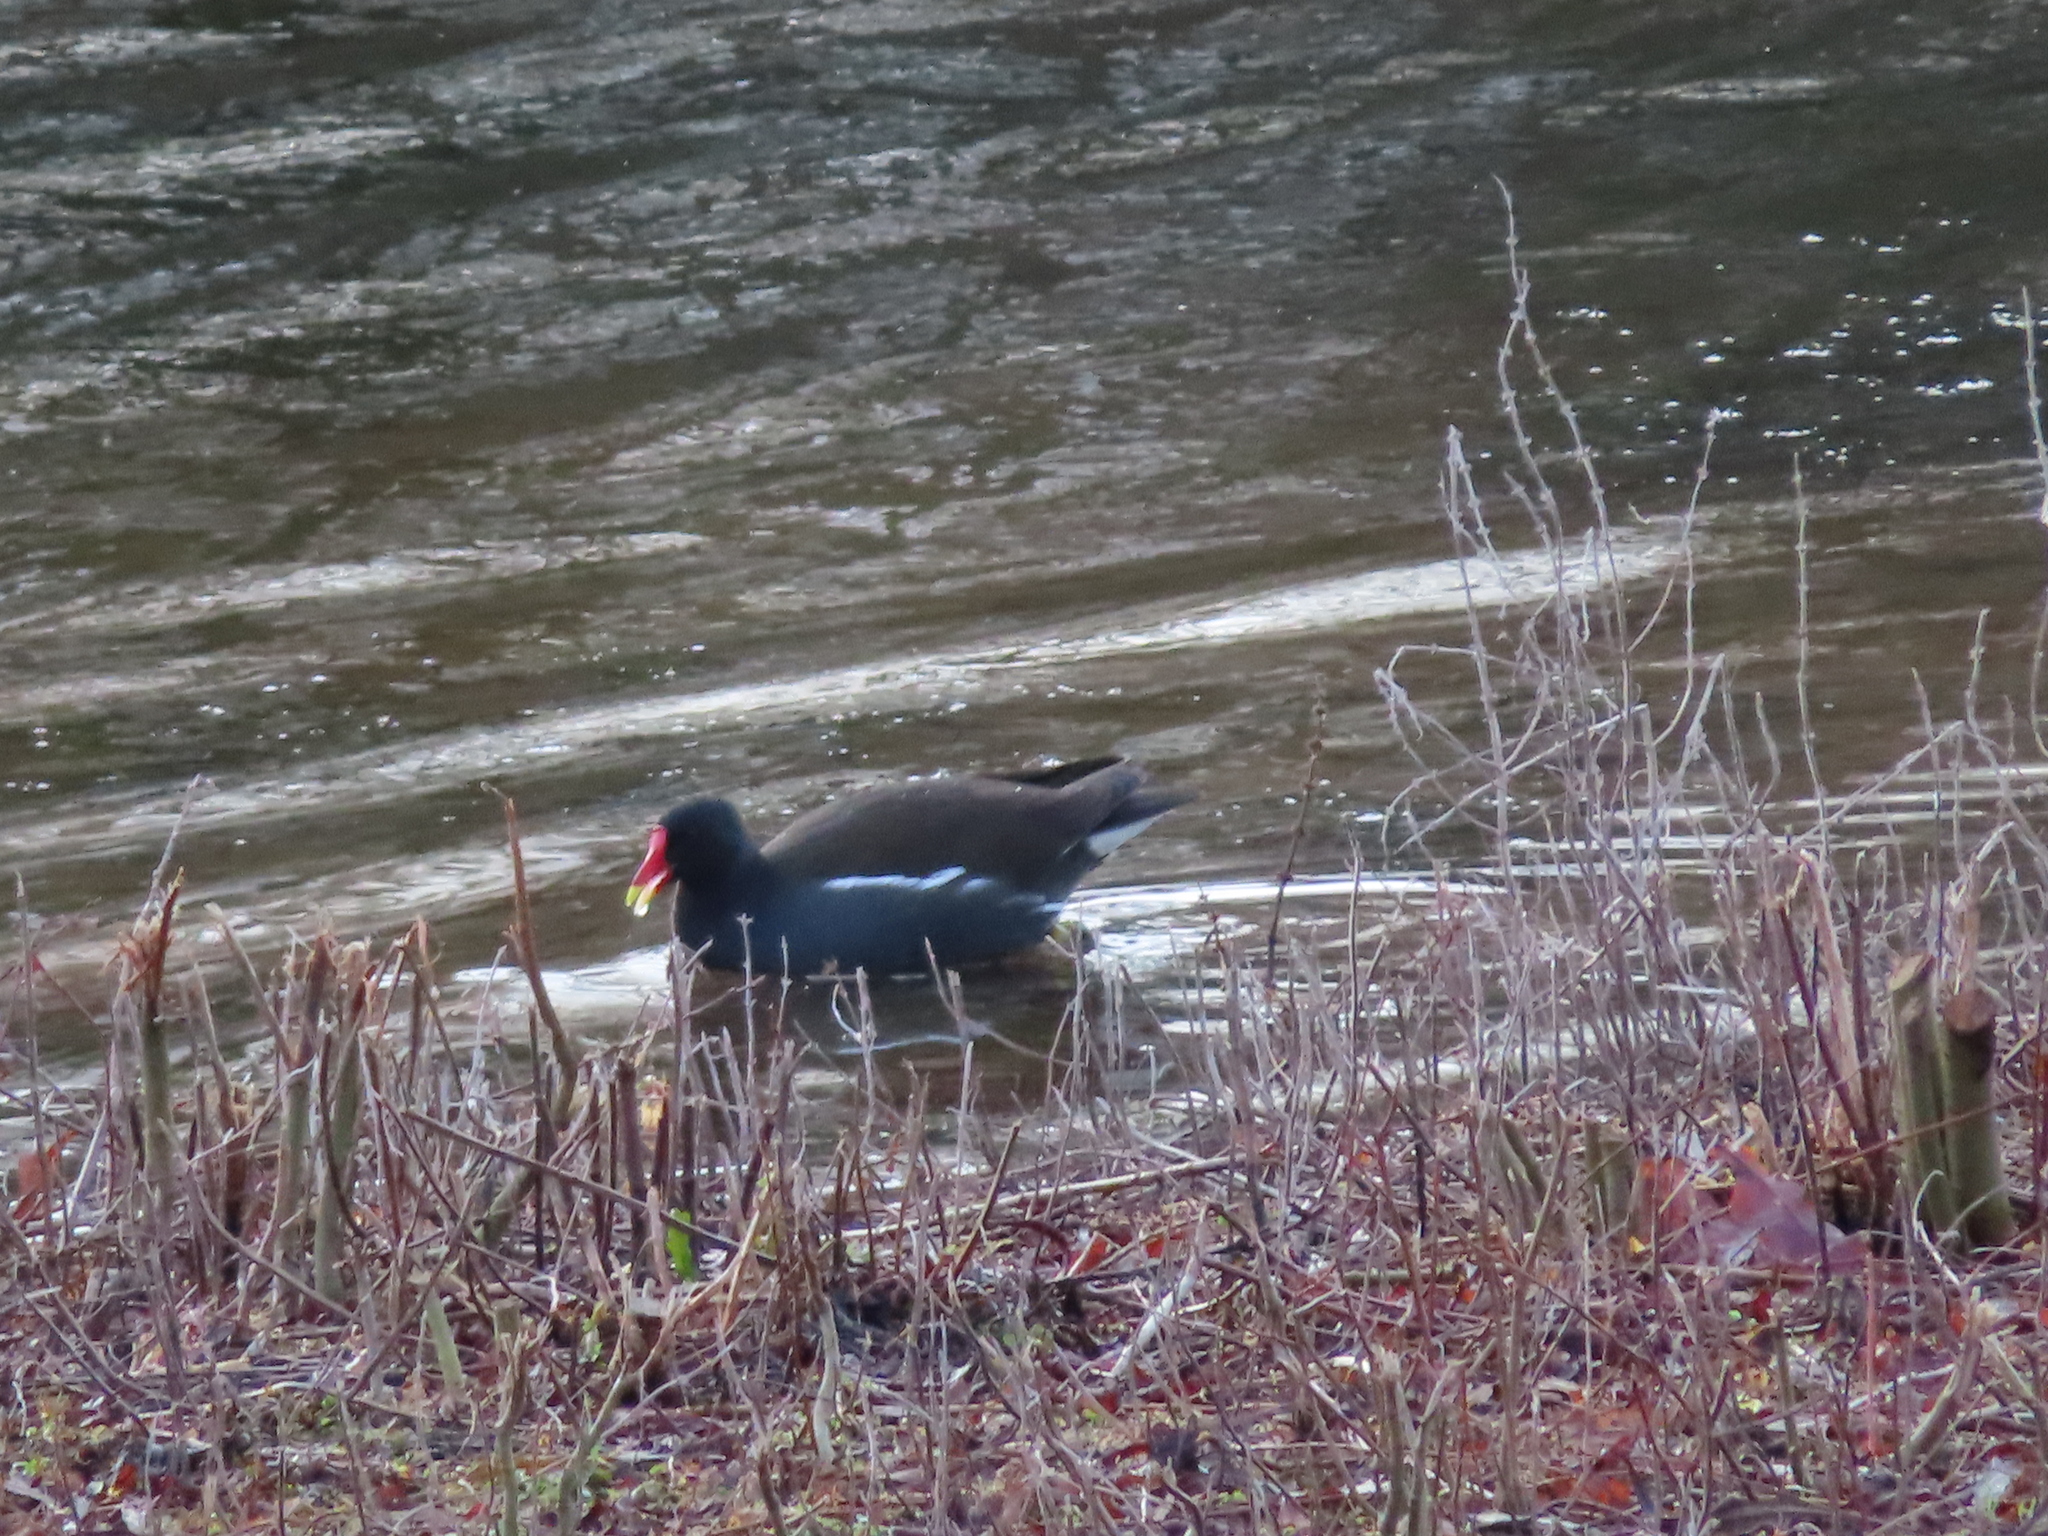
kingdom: Animalia
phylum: Chordata
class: Aves
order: Gruiformes
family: Rallidae
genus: Gallinula
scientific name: Gallinula chloropus
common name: Common moorhen
